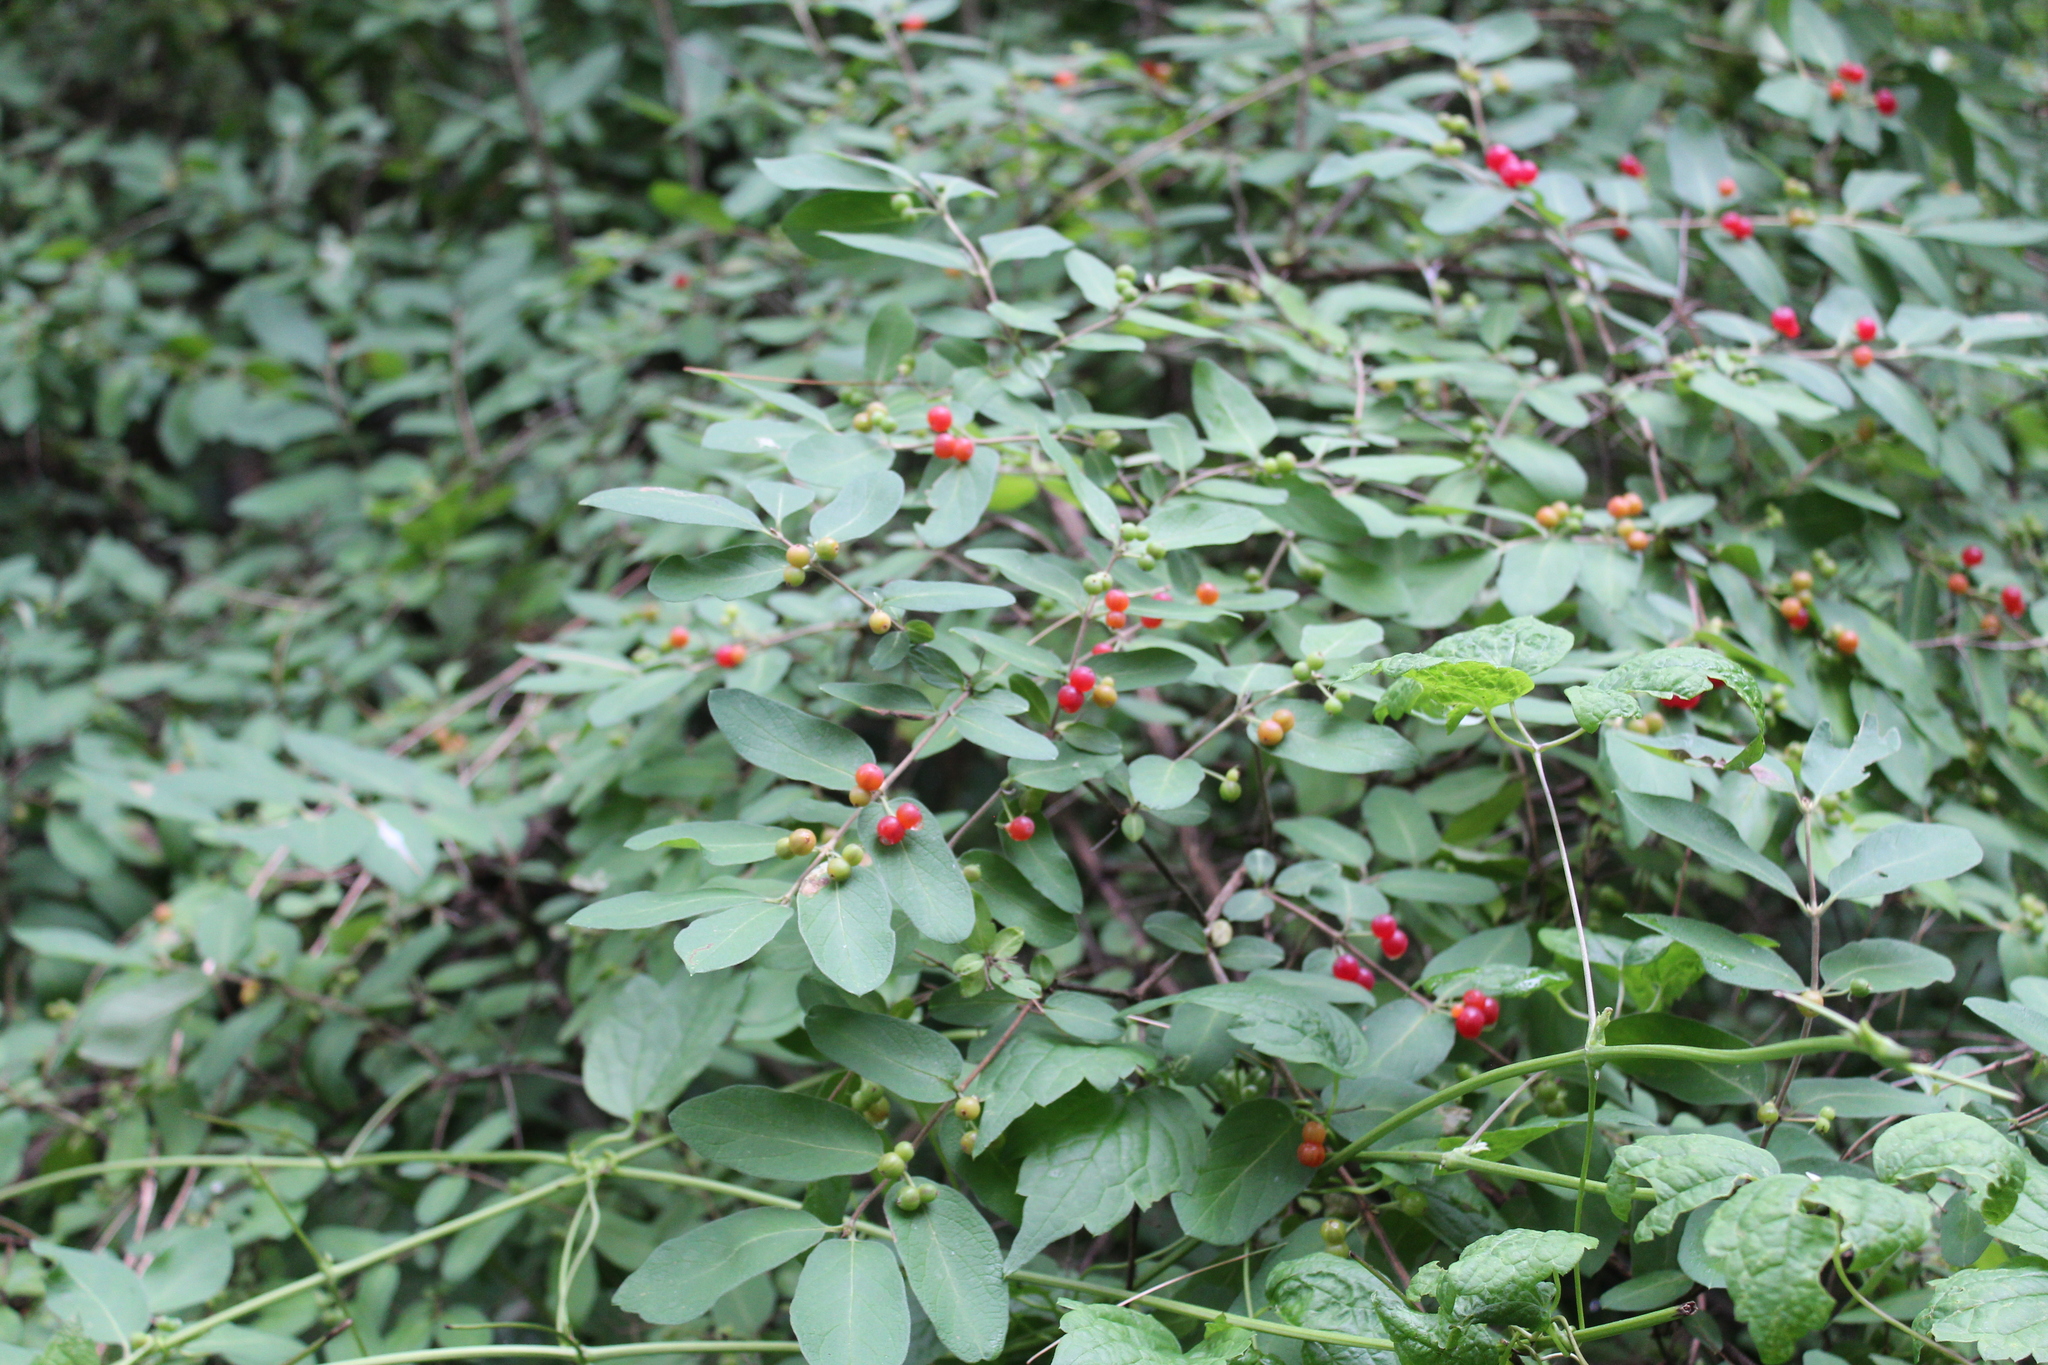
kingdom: Plantae
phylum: Tracheophyta
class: Magnoliopsida
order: Dipsacales
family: Caprifoliaceae
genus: Lonicera
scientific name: Lonicera morrowii
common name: Morrow's honeysuckle
